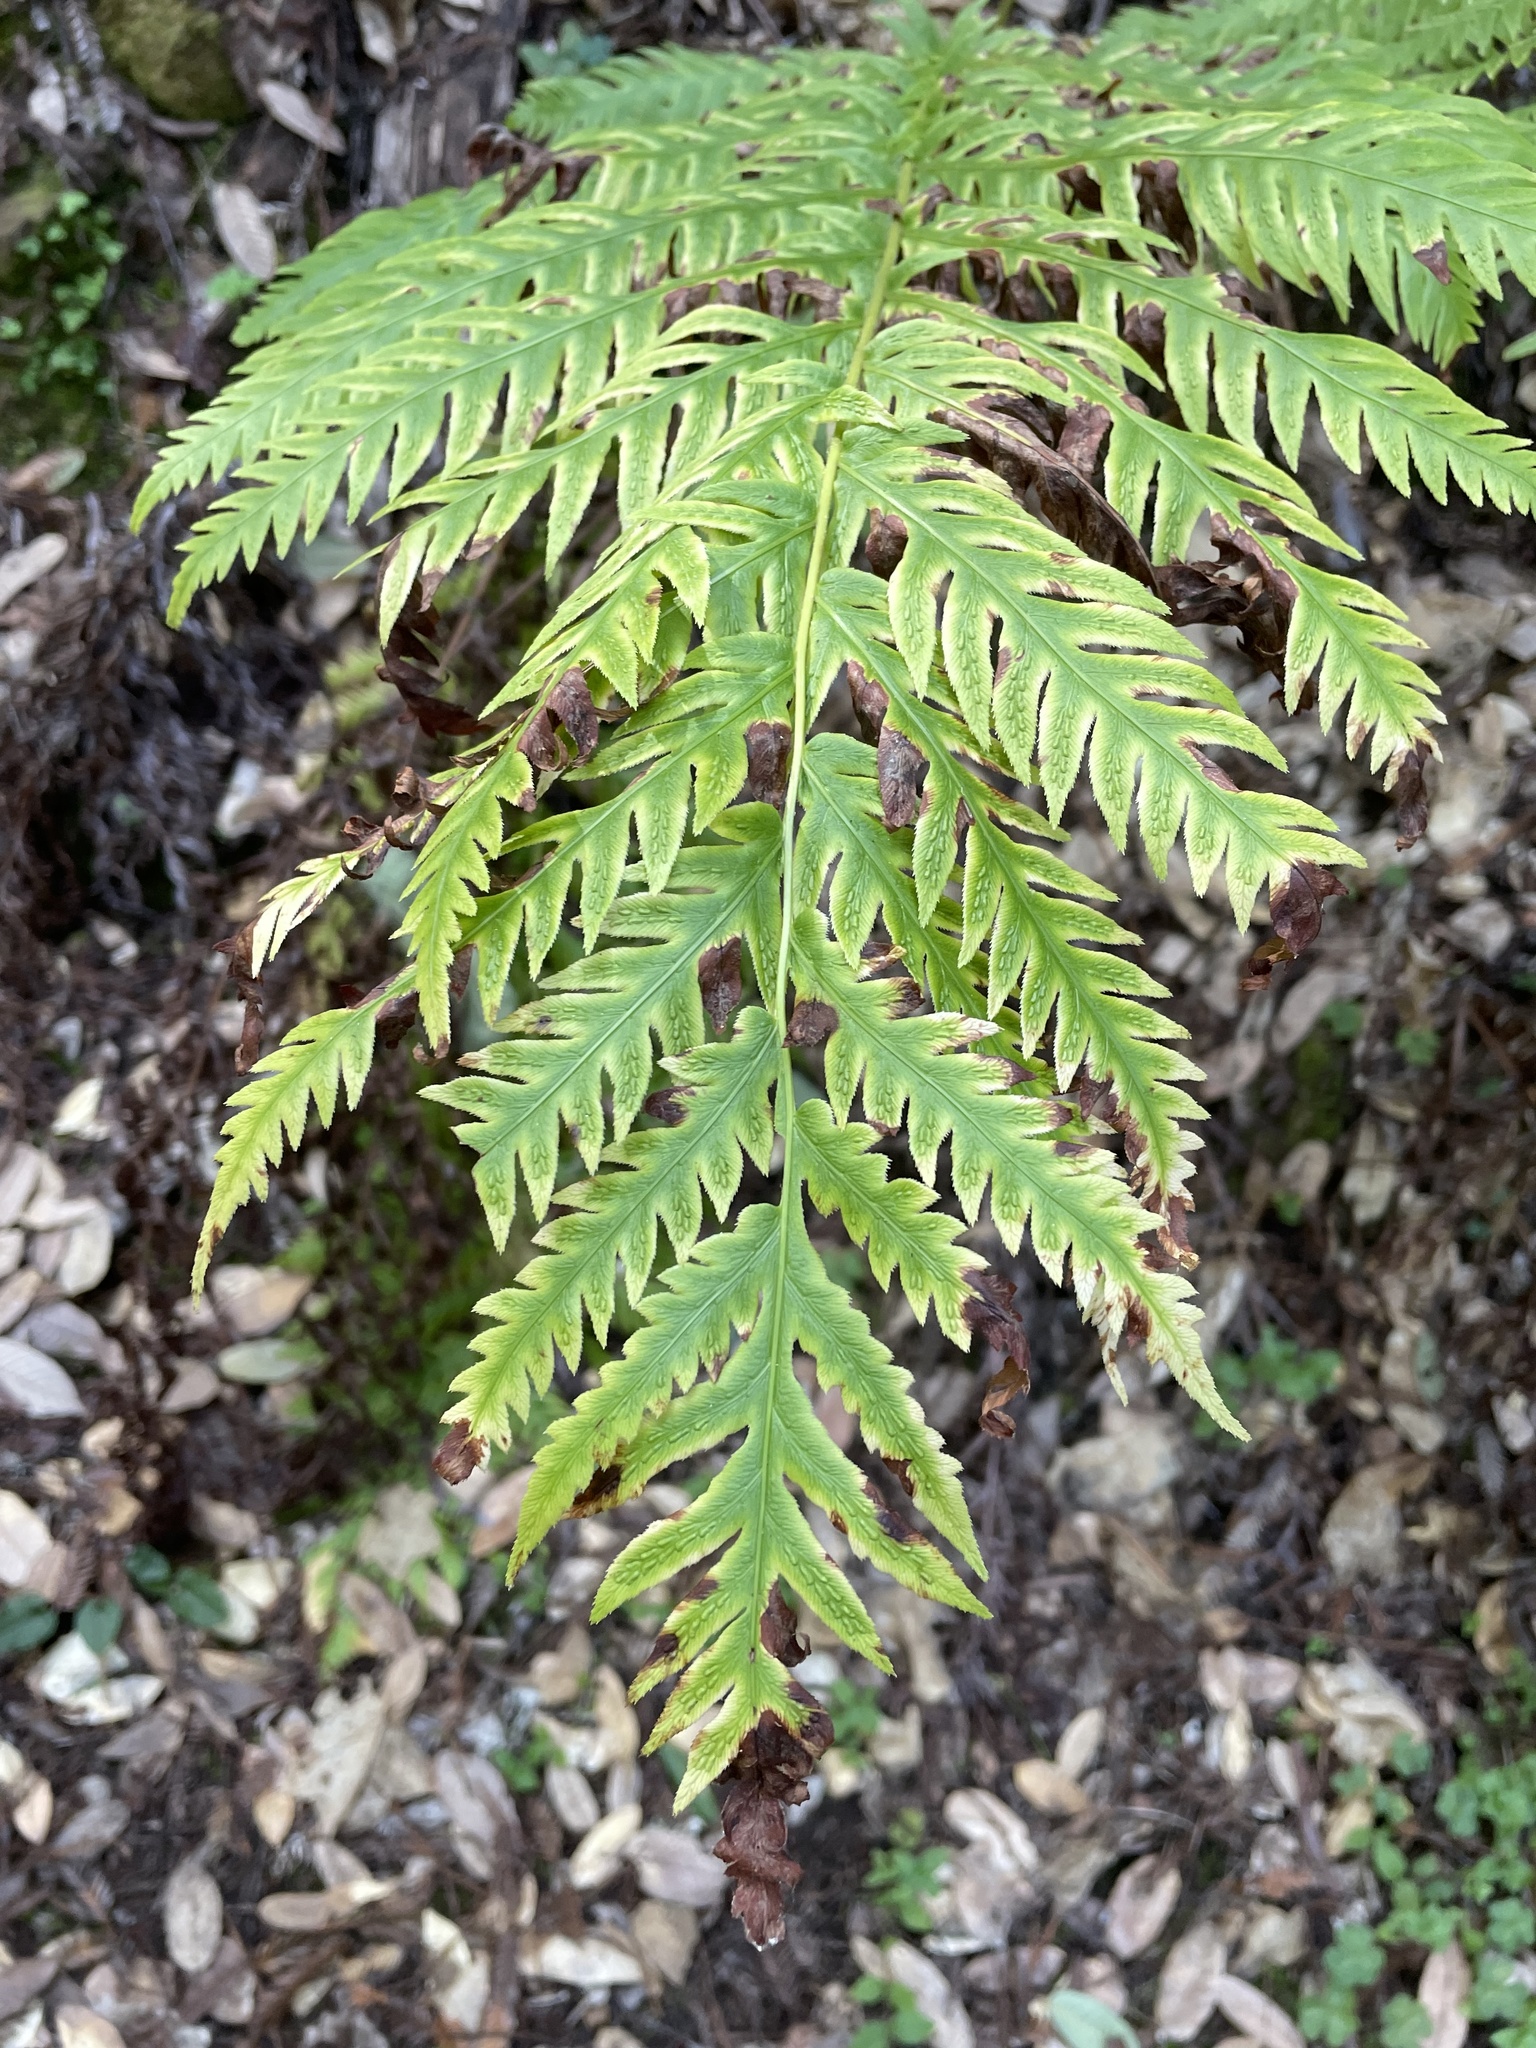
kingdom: Plantae
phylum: Tracheophyta
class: Polypodiopsida
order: Polypodiales
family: Blechnaceae
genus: Woodwardia
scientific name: Woodwardia fimbriata
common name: Giant chain fern
